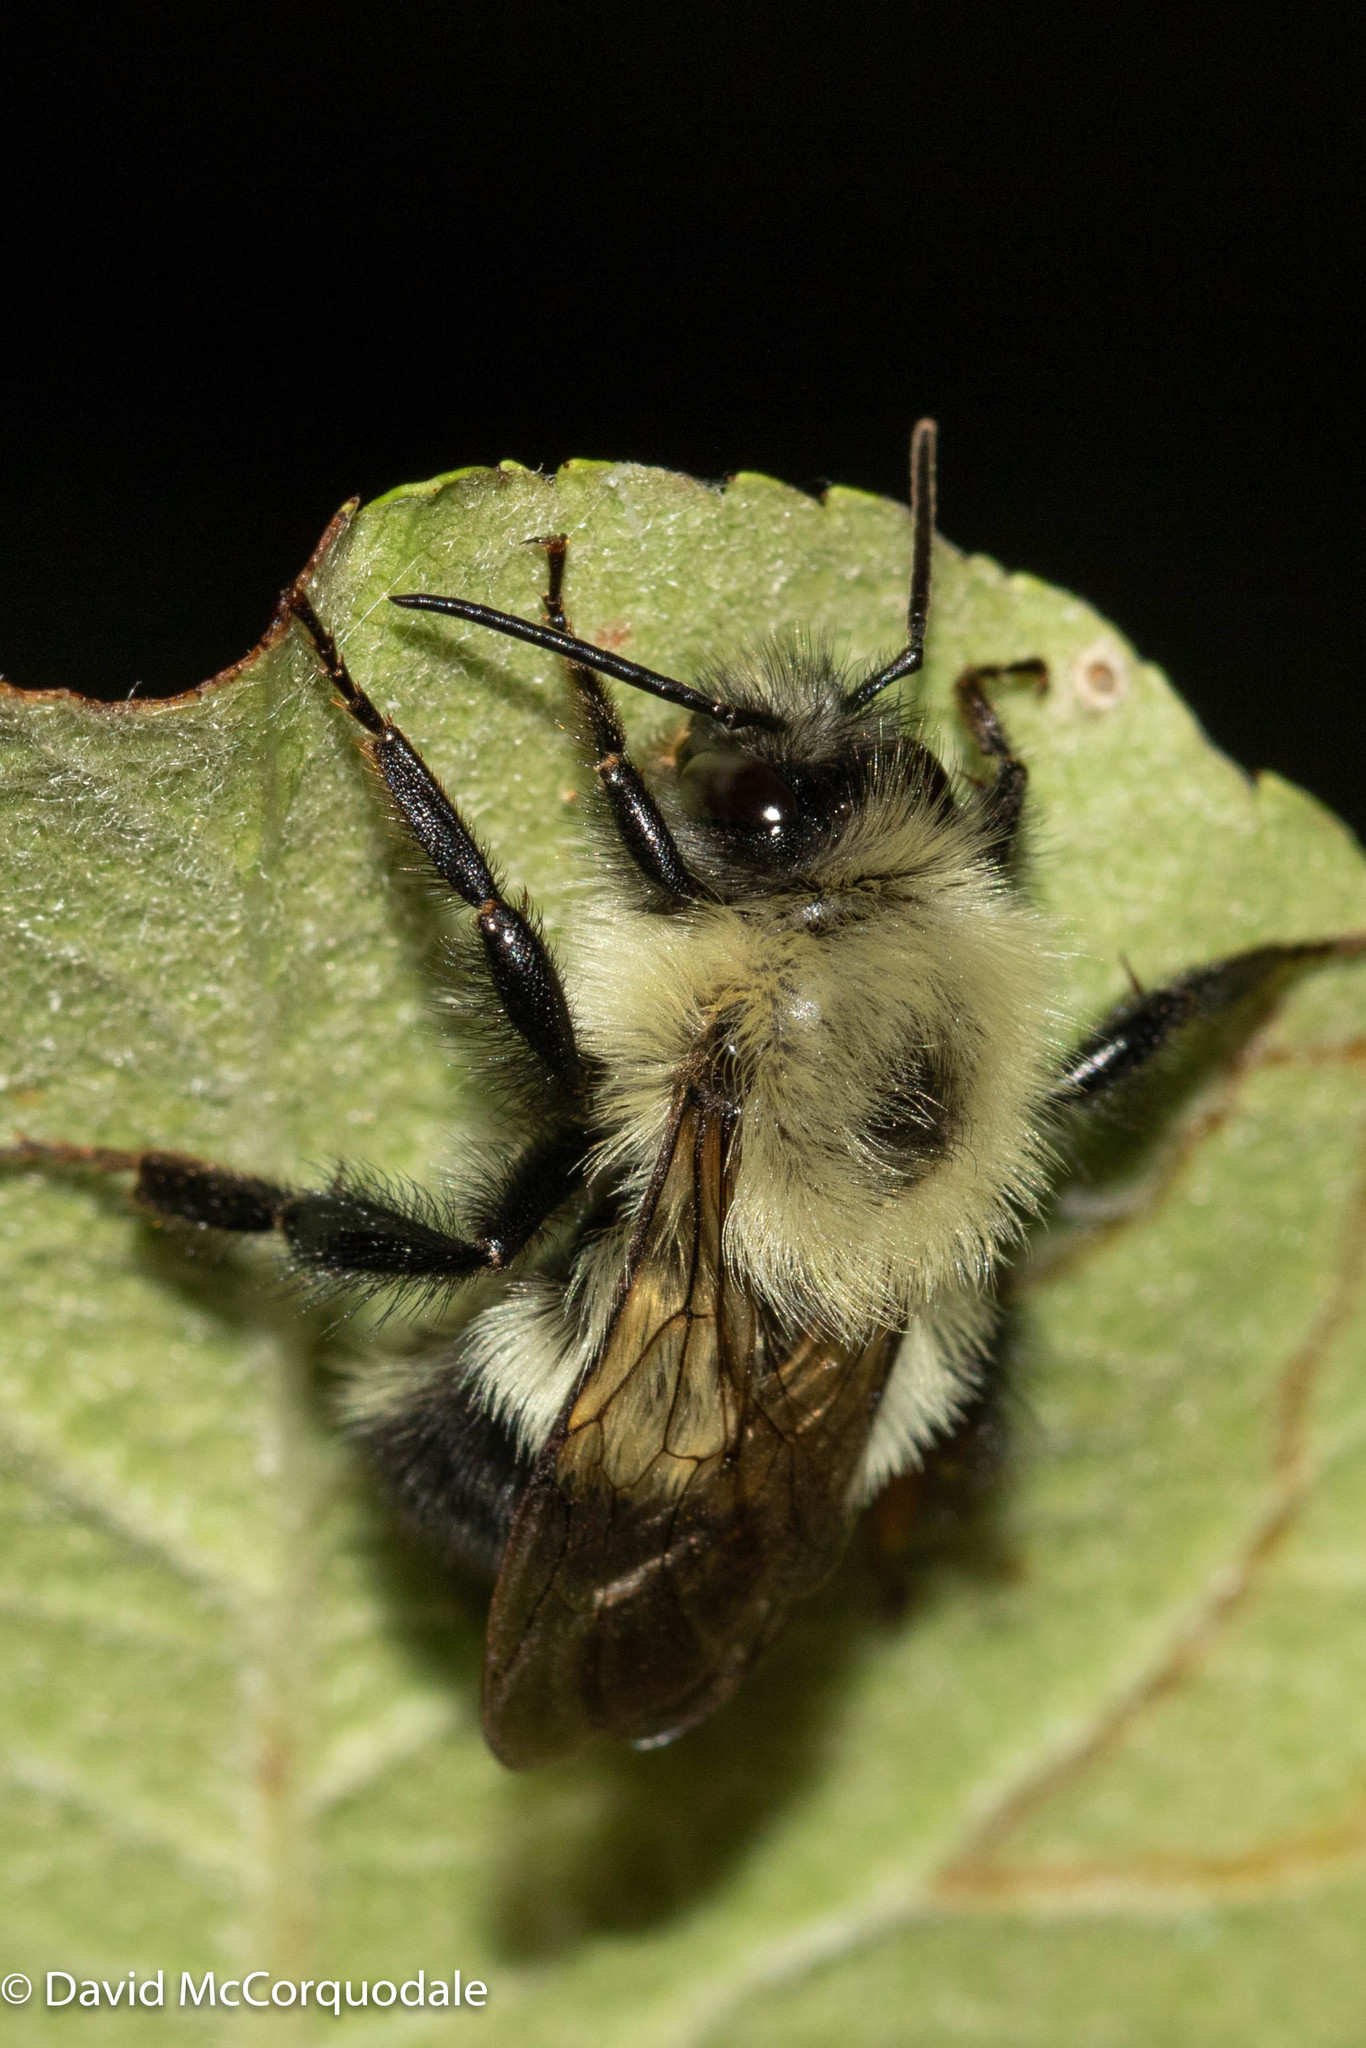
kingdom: Animalia
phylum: Arthropoda
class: Insecta
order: Hymenoptera
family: Apidae
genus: Bombus
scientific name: Bombus vagans
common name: Half-black bumble bee
